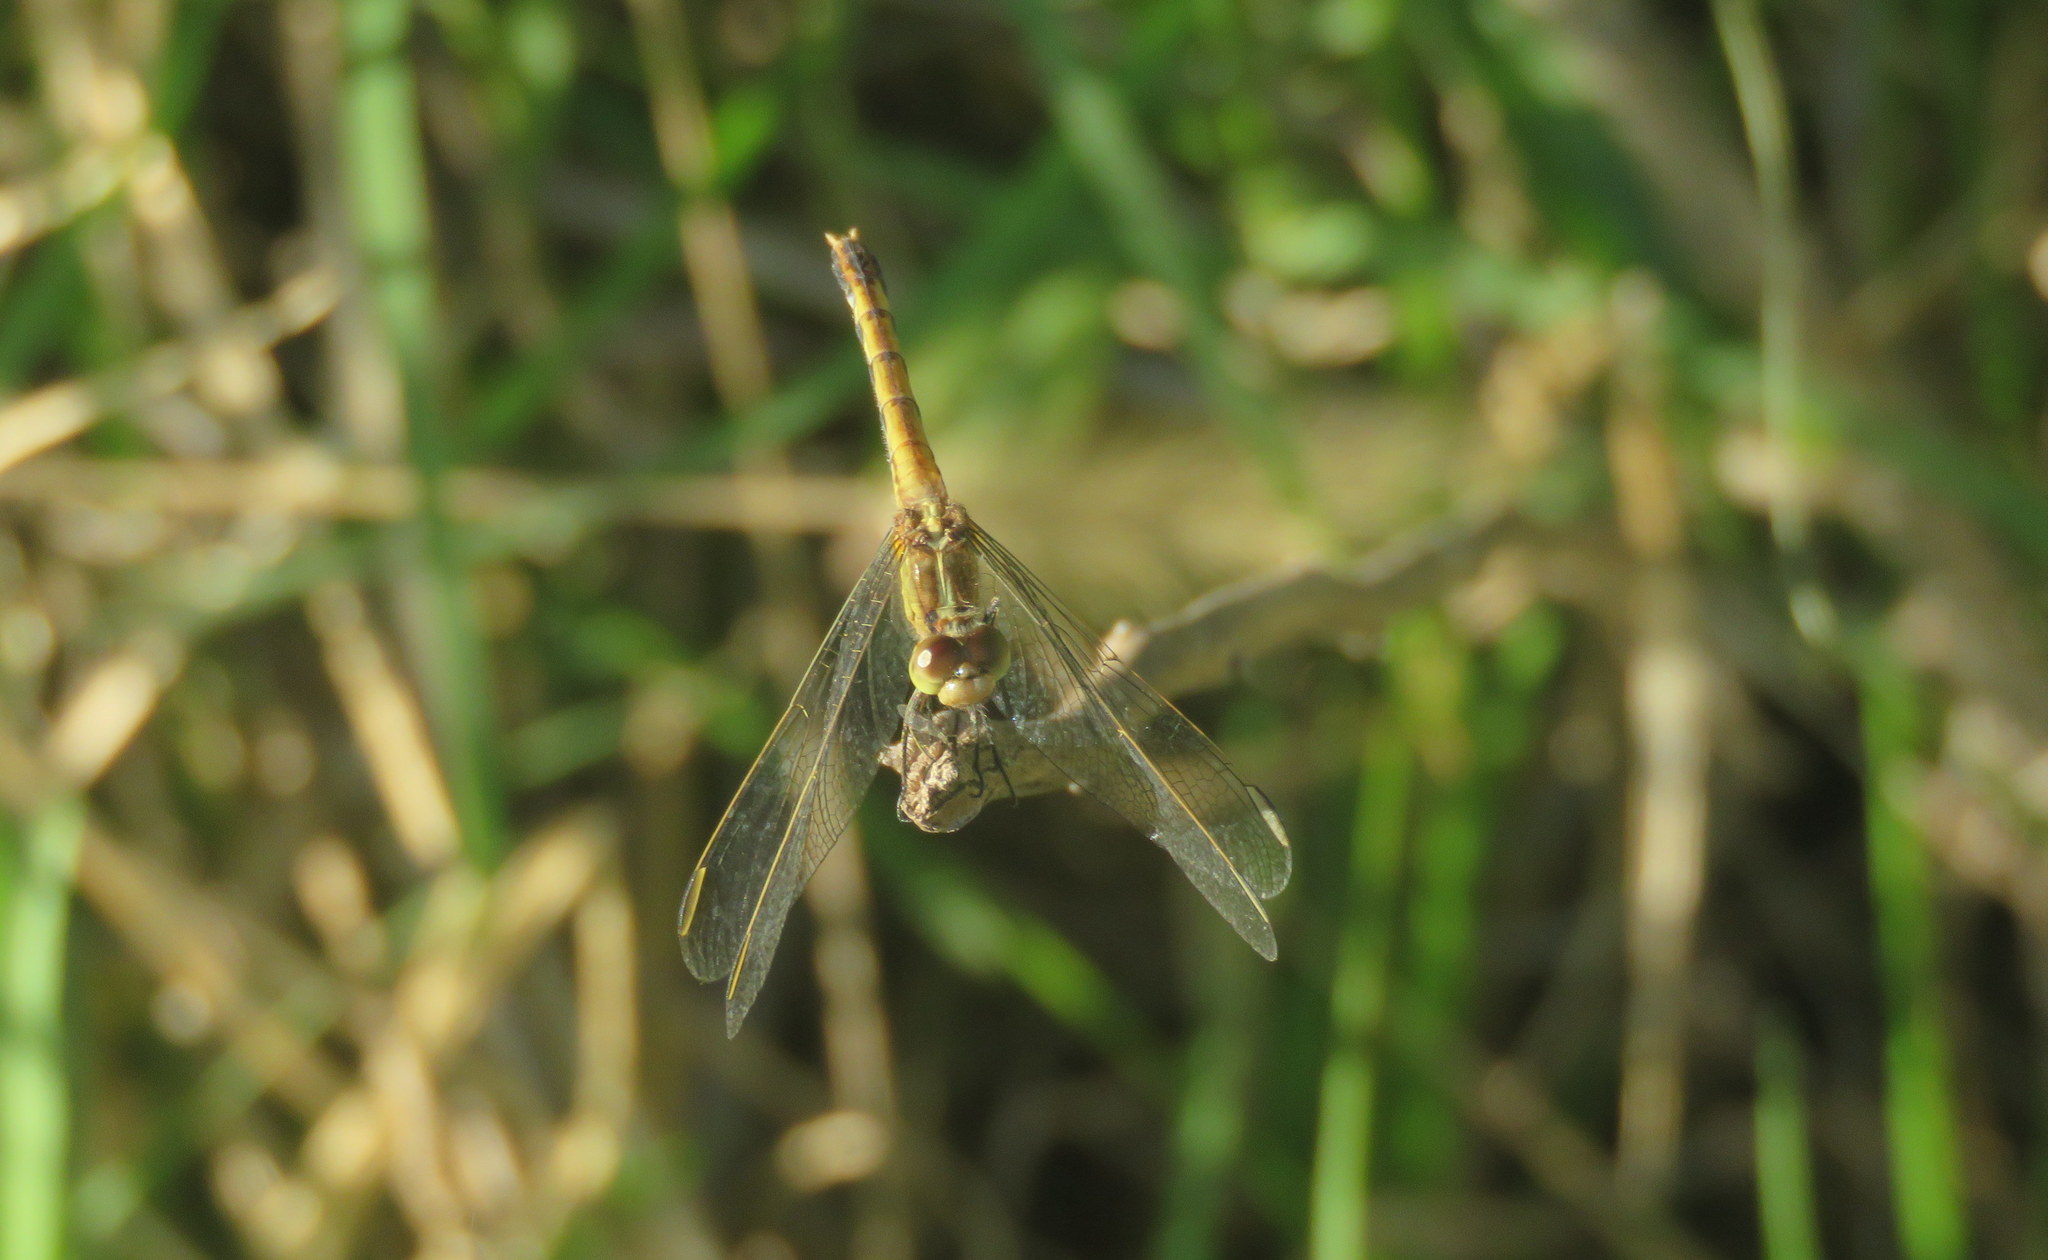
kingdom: Animalia
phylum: Arthropoda
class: Insecta
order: Odonata
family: Libellulidae
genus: Erythrodiplax
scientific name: Erythrodiplax nigricans
